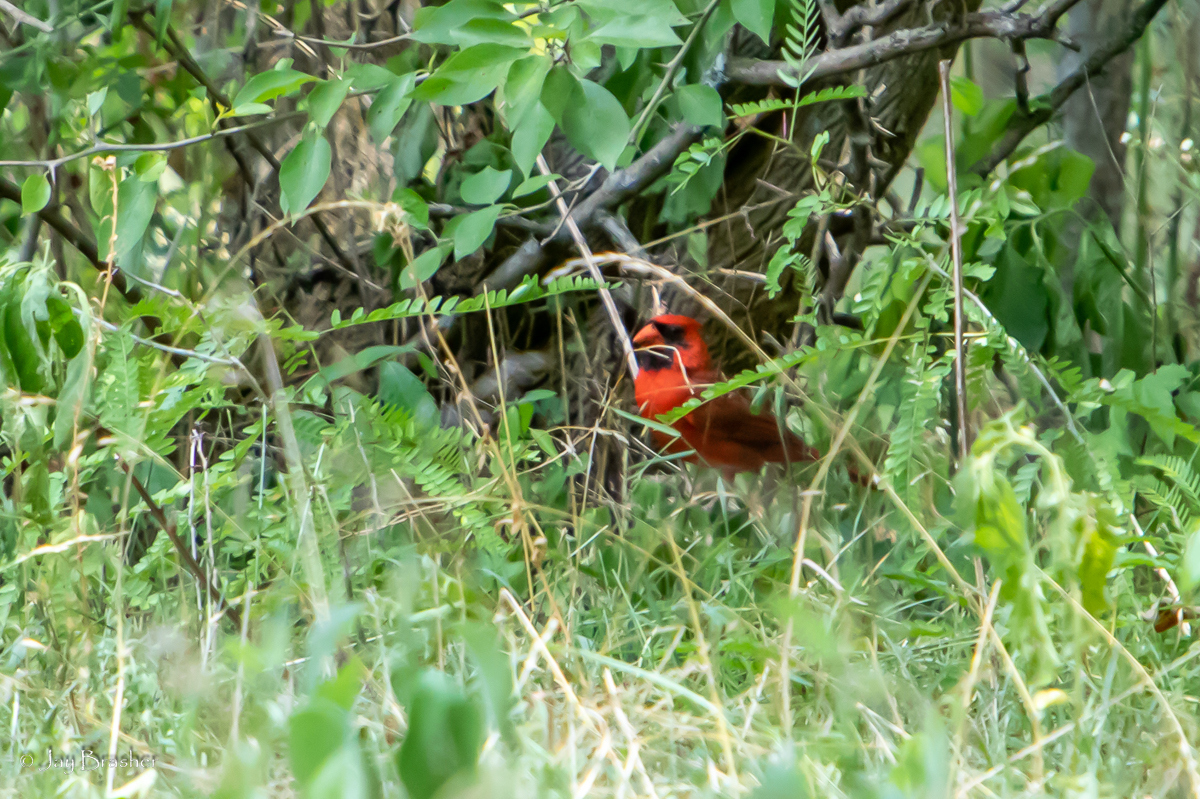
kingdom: Animalia
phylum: Chordata
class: Aves
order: Passeriformes
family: Cardinalidae
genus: Cardinalis
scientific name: Cardinalis cardinalis
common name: Northern cardinal
